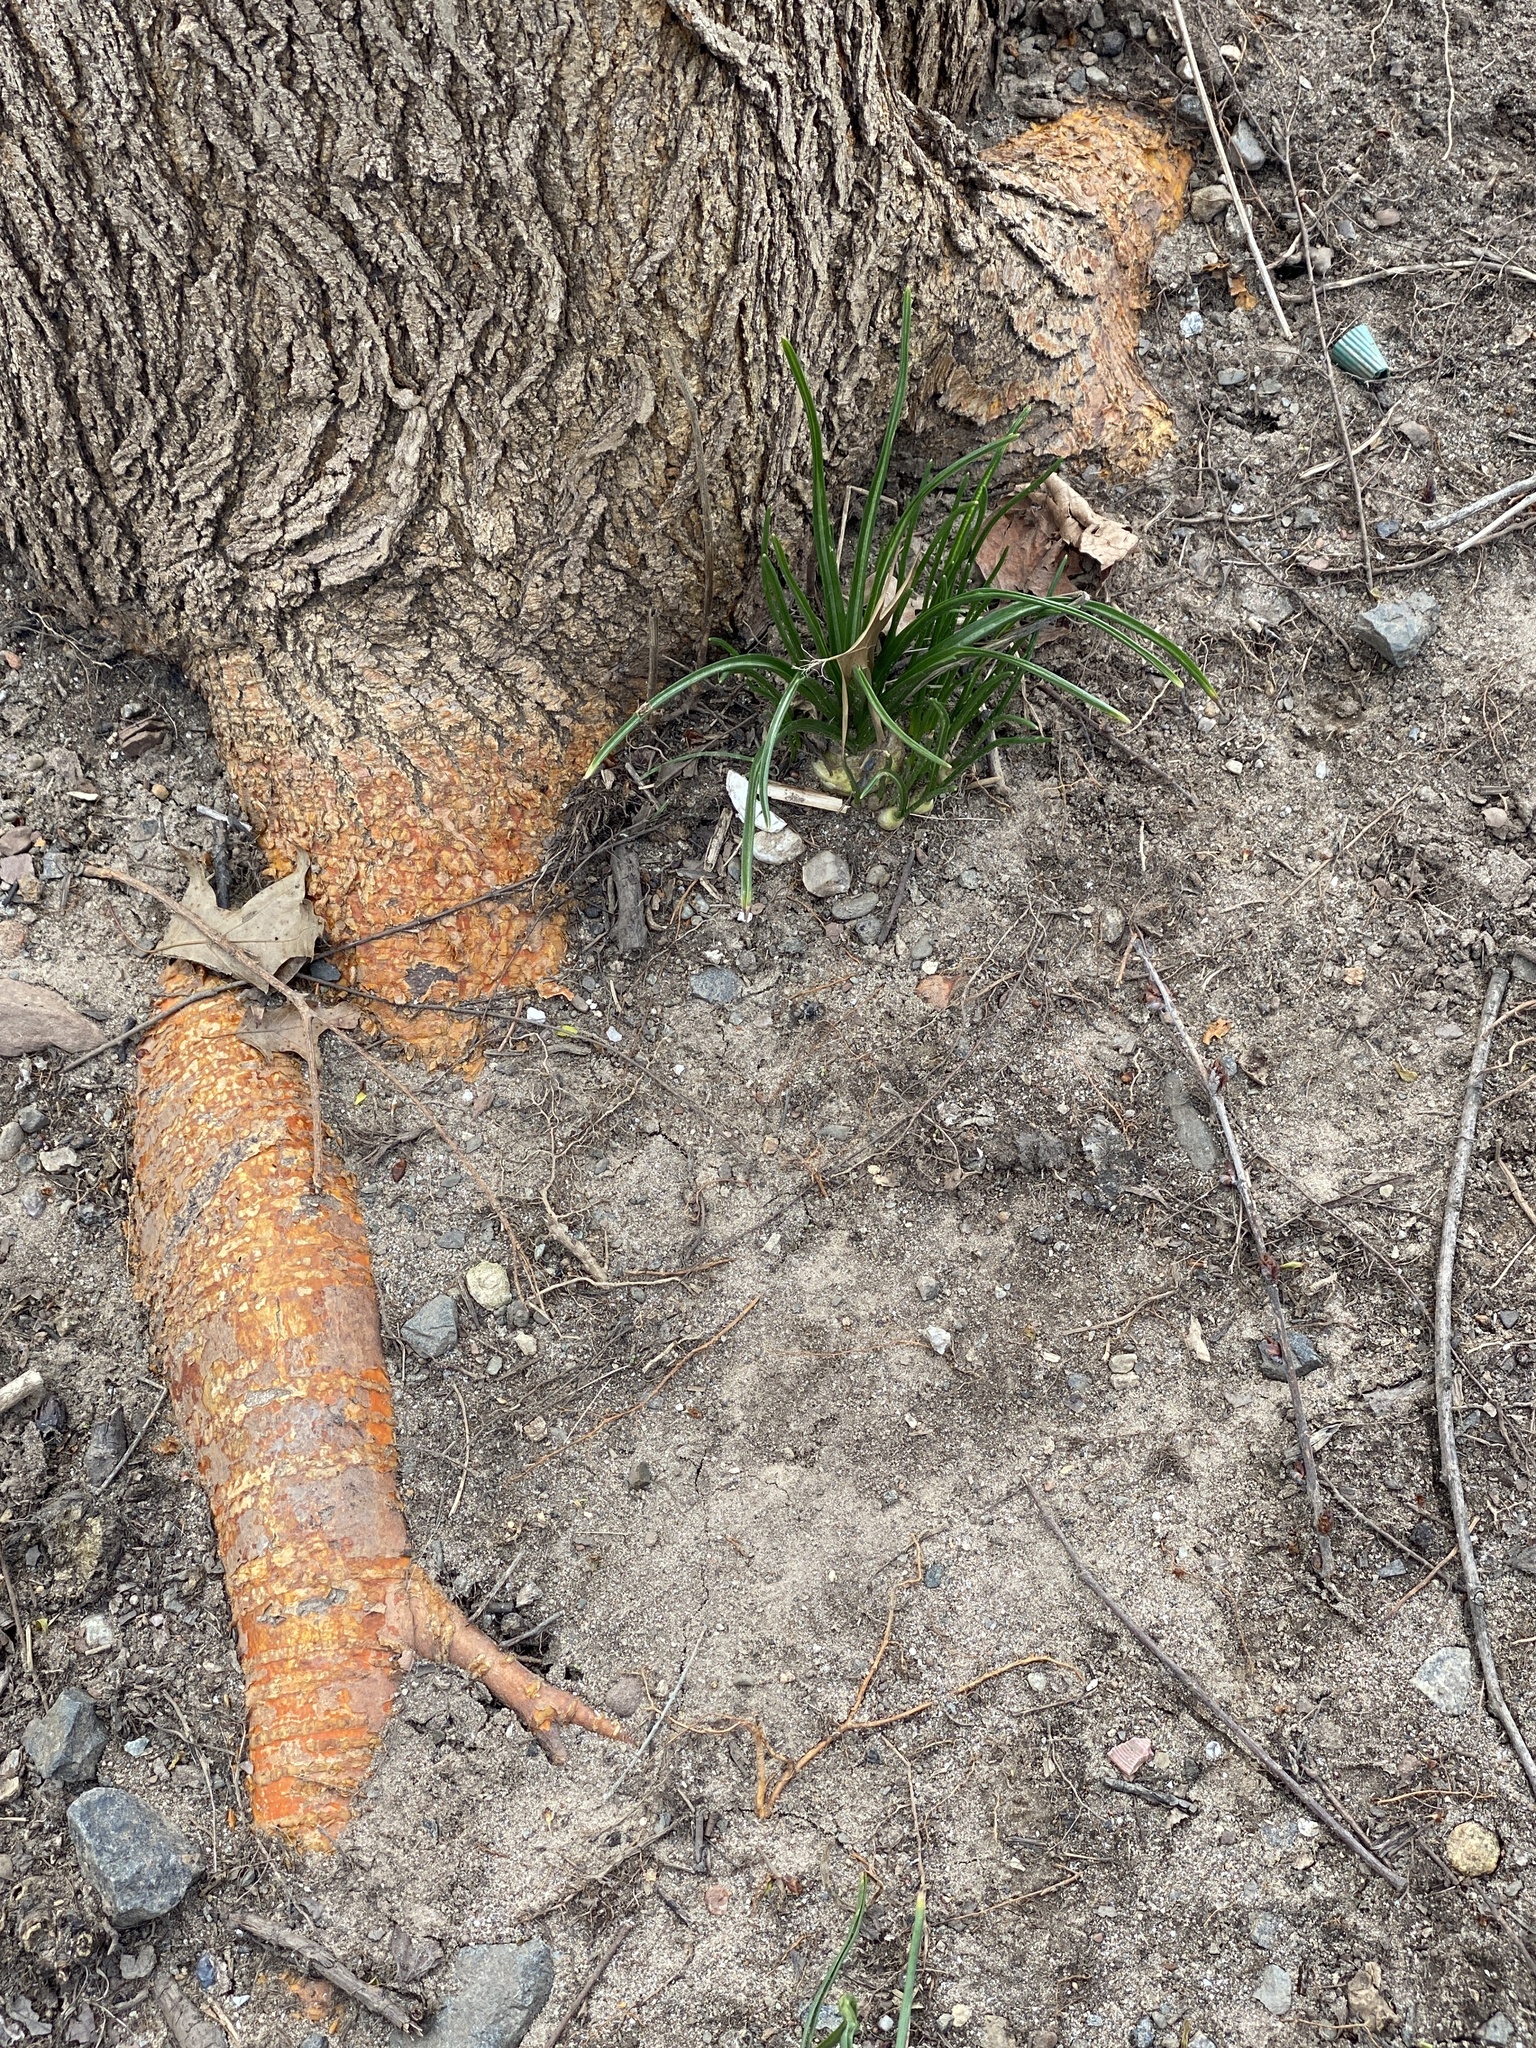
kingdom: Plantae
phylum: Tracheophyta
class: Magnoliopsida
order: Rosales
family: Moraceae
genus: Maclura
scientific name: Maclura pomifera
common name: Osage-orange
